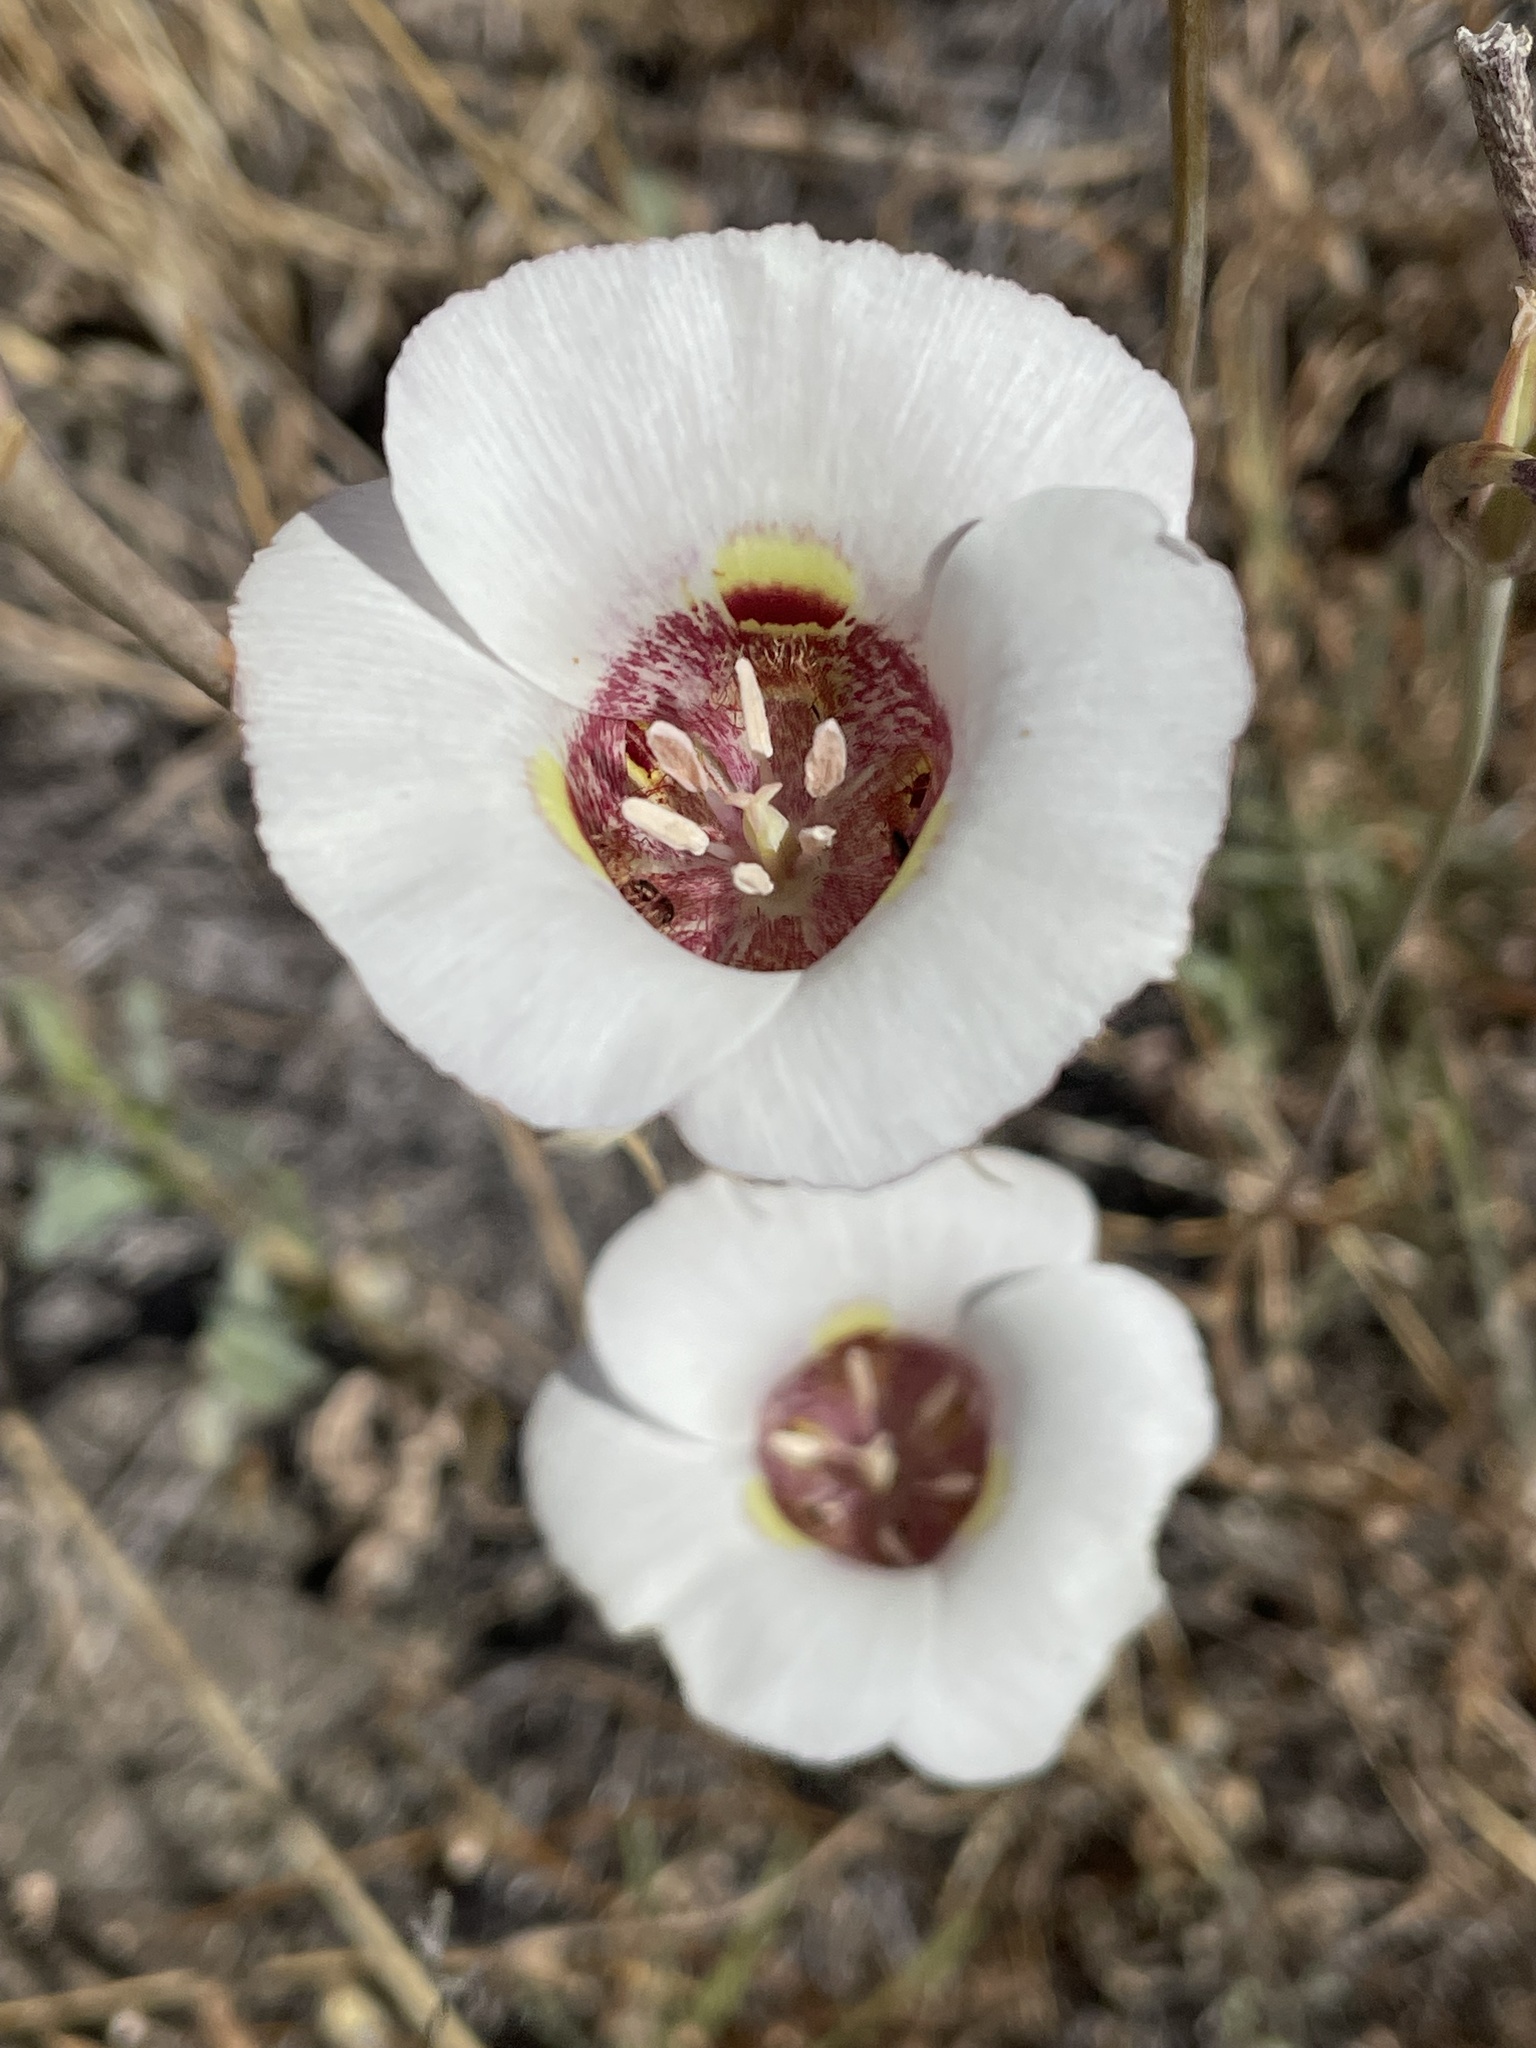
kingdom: Plantae
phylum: Tracheophyta
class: Liliopsida
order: Liliales
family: Liliaceae
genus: Calochortus
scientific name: Calochortus argillosus
